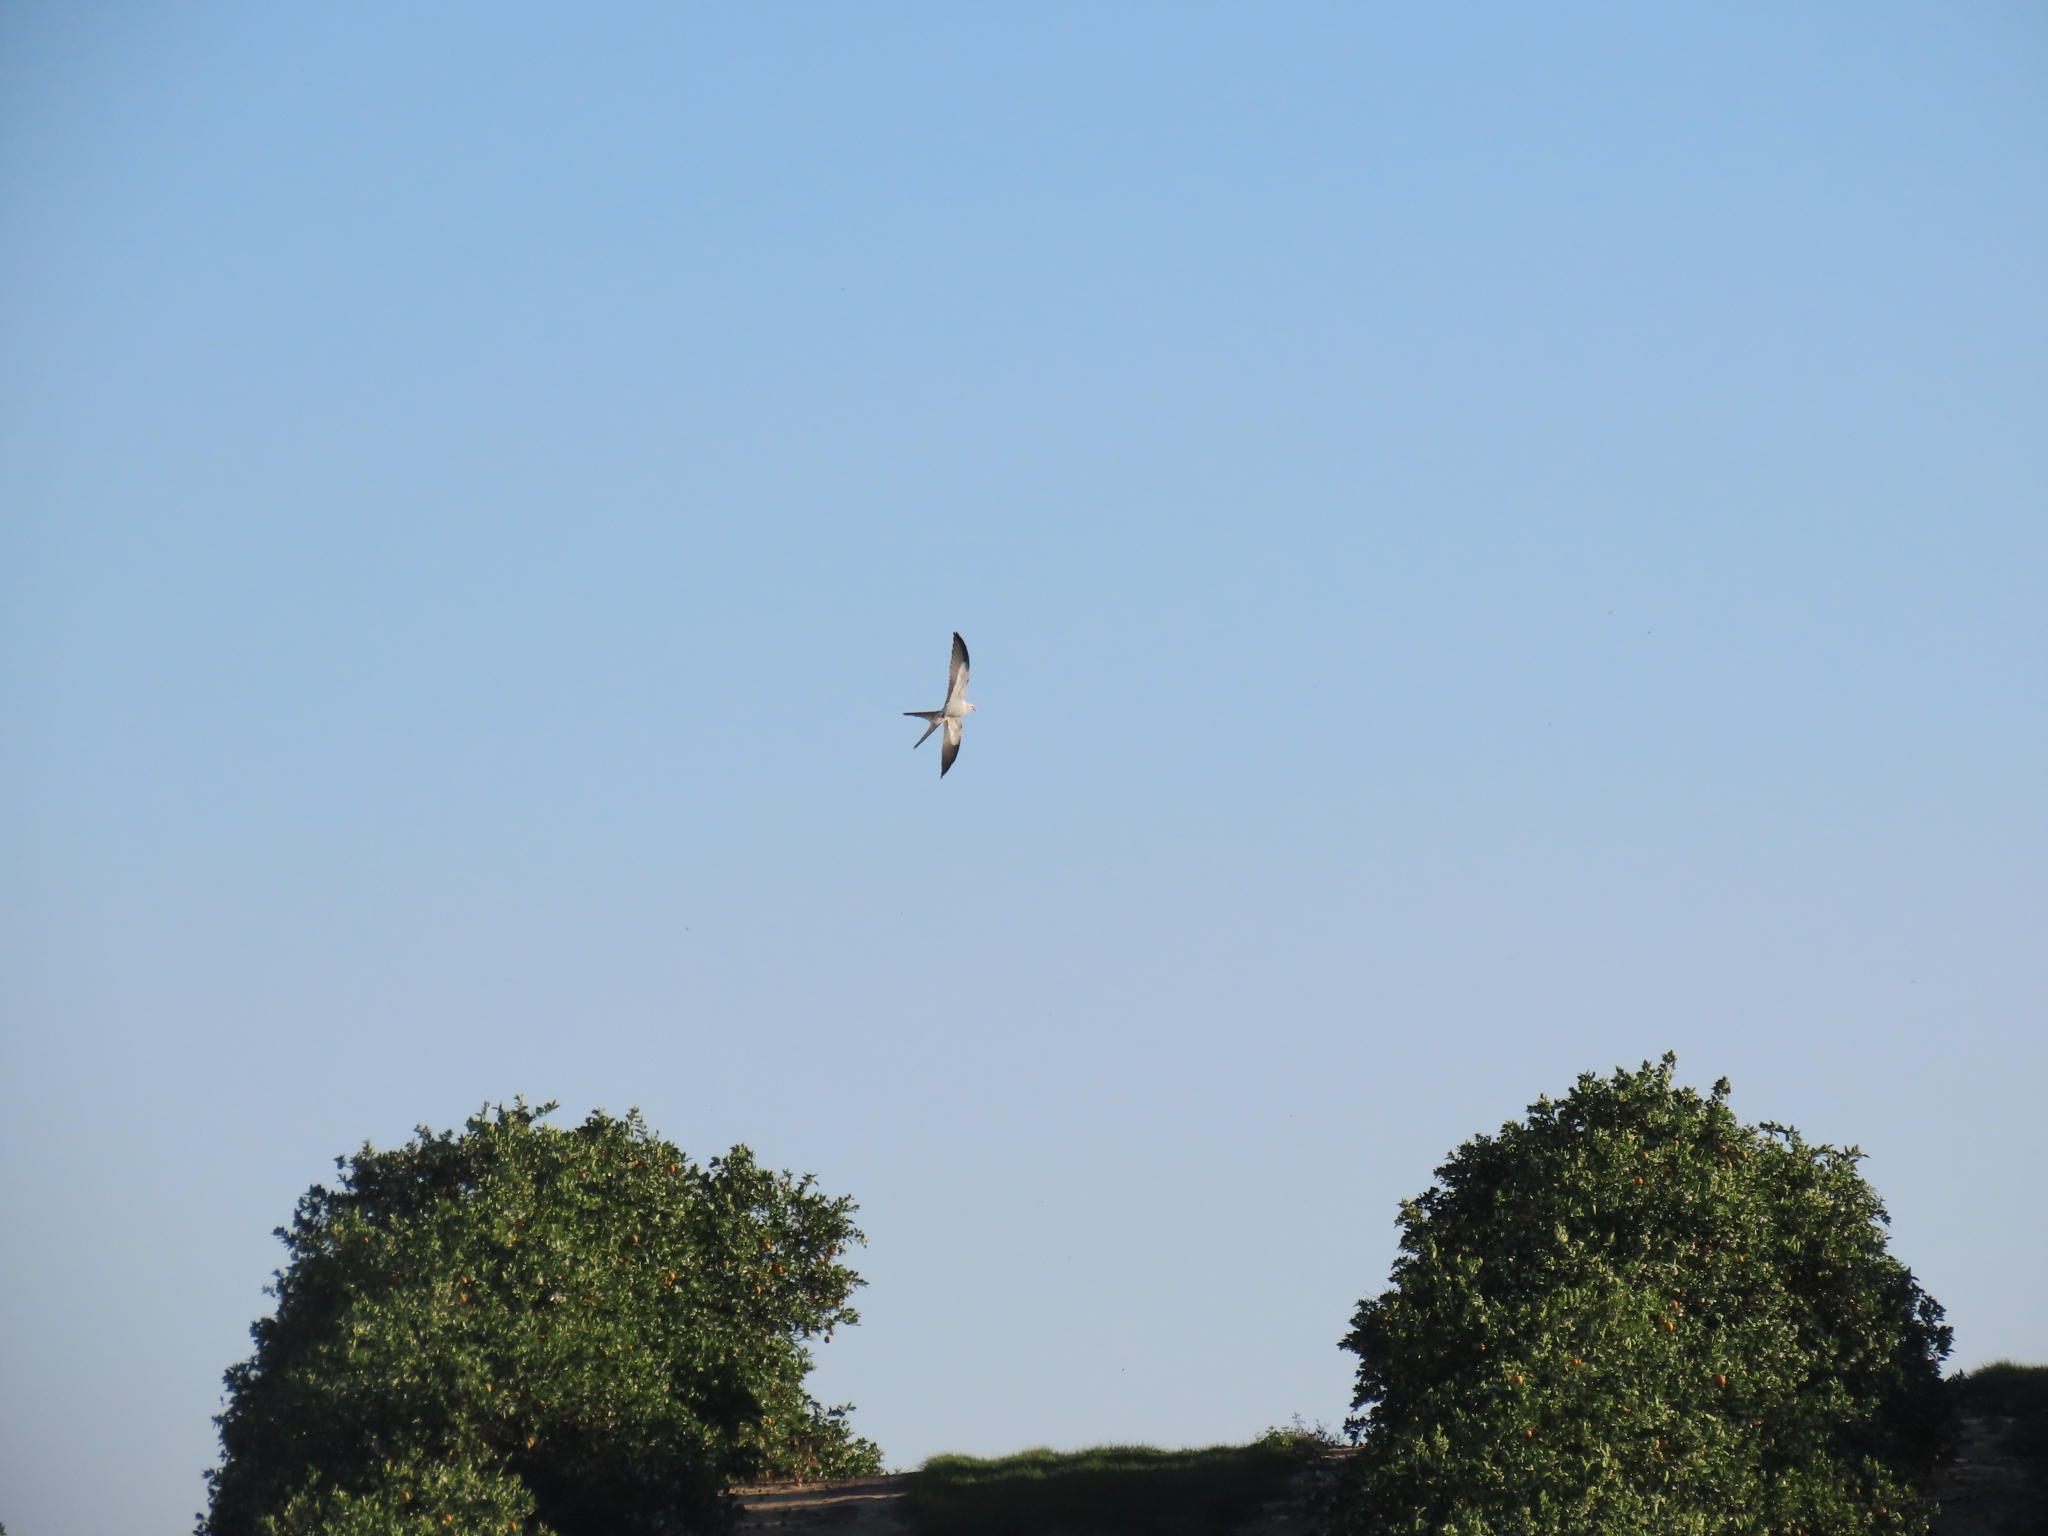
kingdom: Animalia
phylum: Chordata
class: Aves
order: Accipitriformes
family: Accipitridae
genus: Elanoides
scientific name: Elanoides forficatus
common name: Swallow-tailed kite
